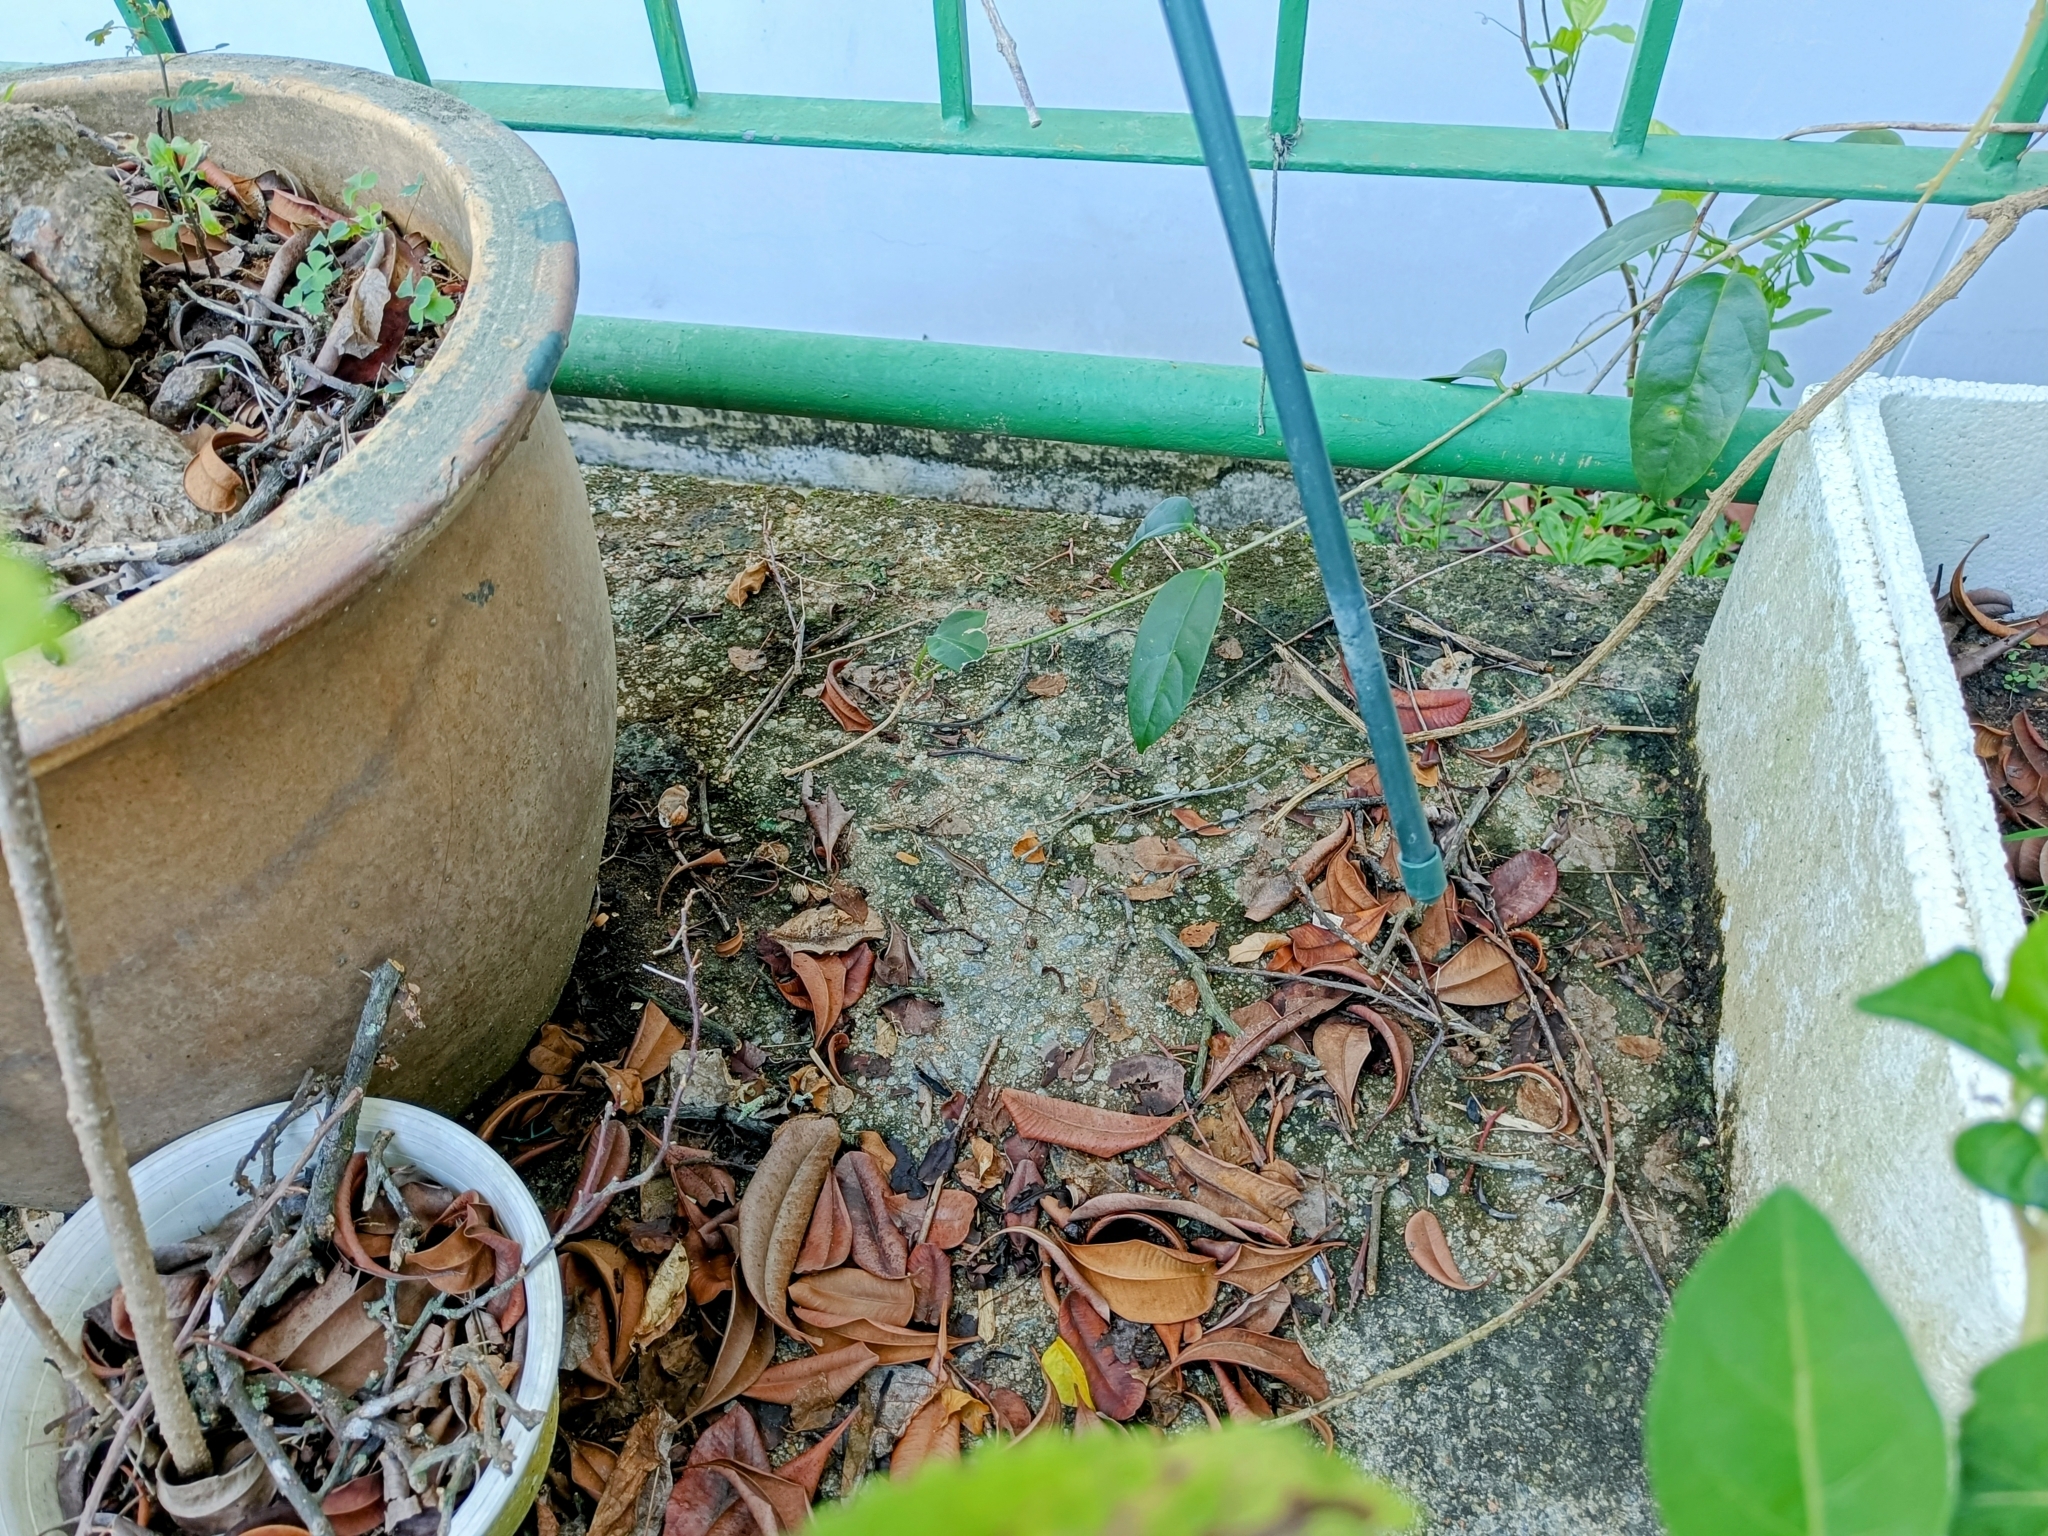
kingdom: Animalia
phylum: Chordata
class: Squamata
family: Dactyloidae
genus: Anolis
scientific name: Anolis sagrei
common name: Brown anole
